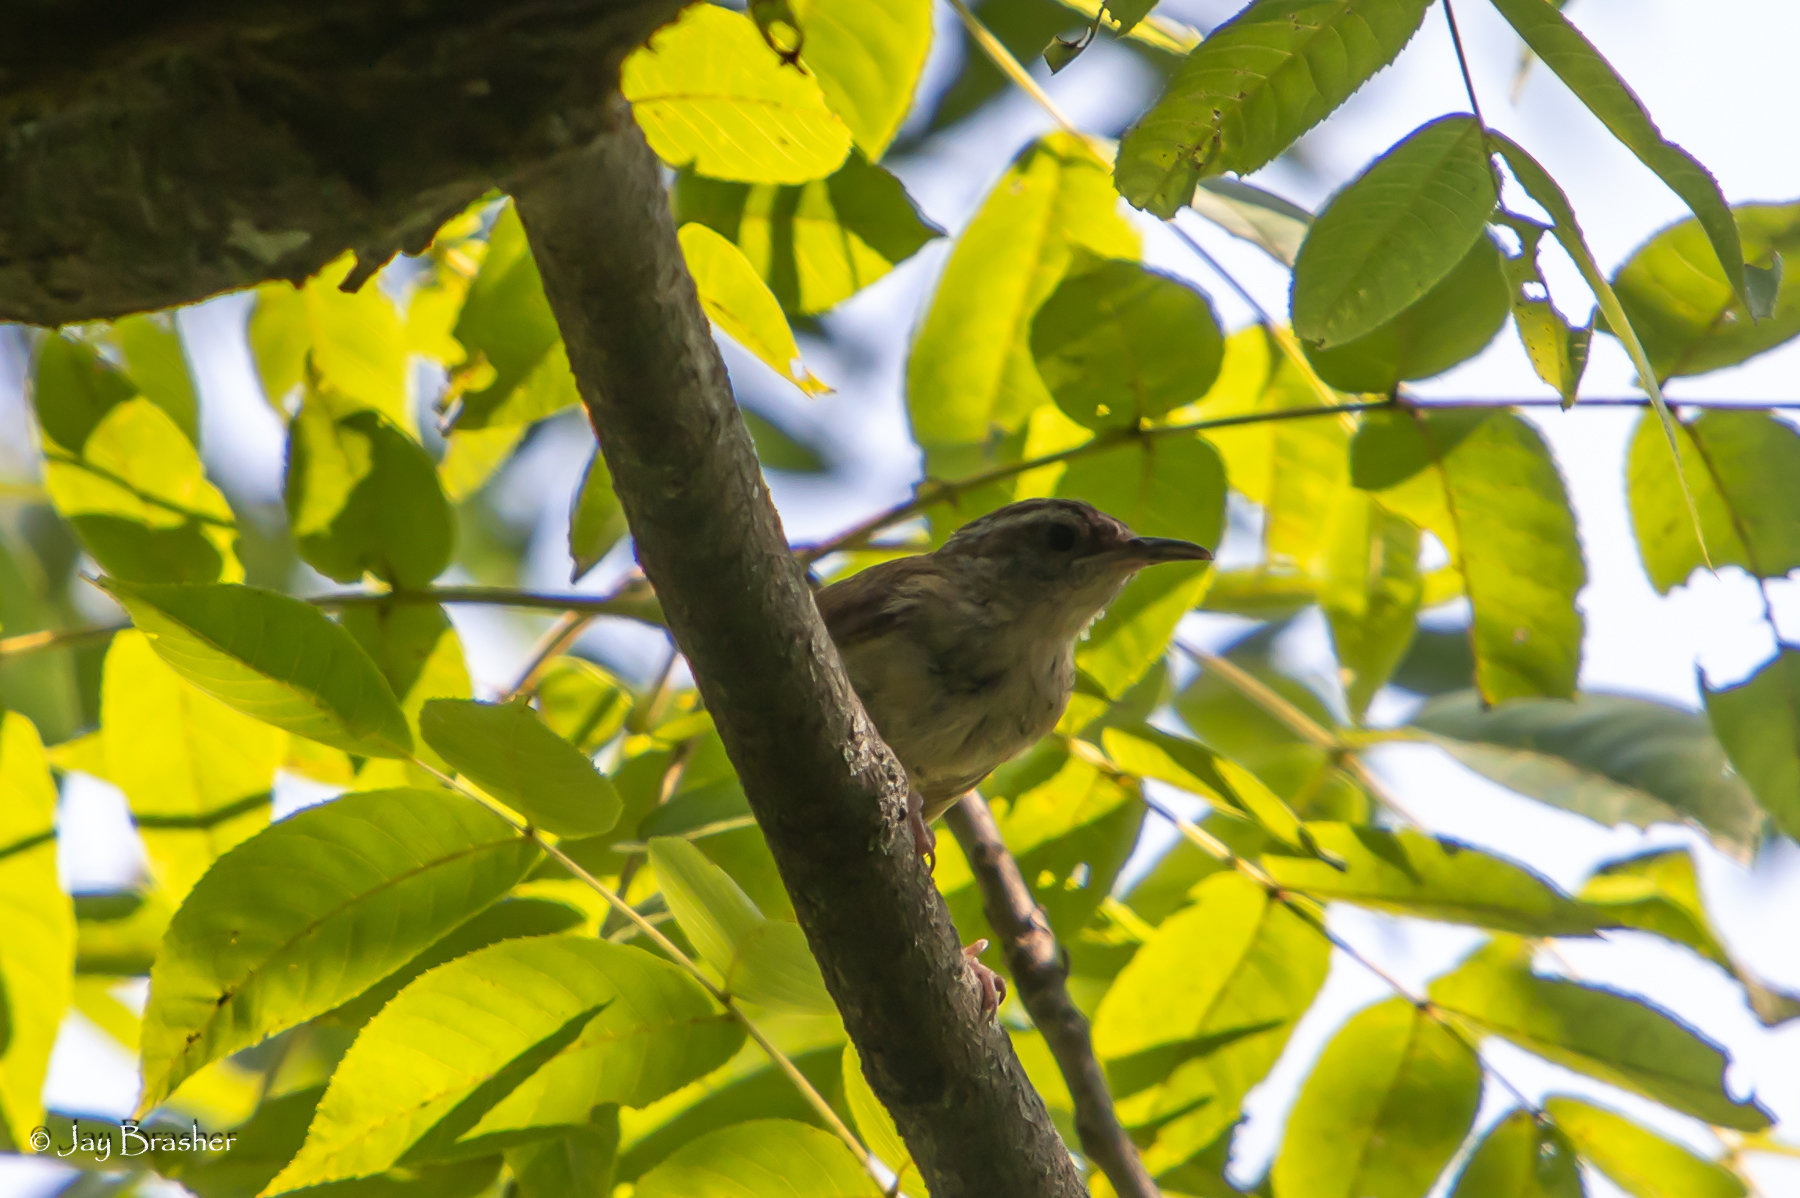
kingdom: Animalia
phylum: Chordata
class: Aves
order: Passeriformes
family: Troglodytidae
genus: Thryothorus
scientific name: Thryothorus ludovicianus
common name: Carolina wren
